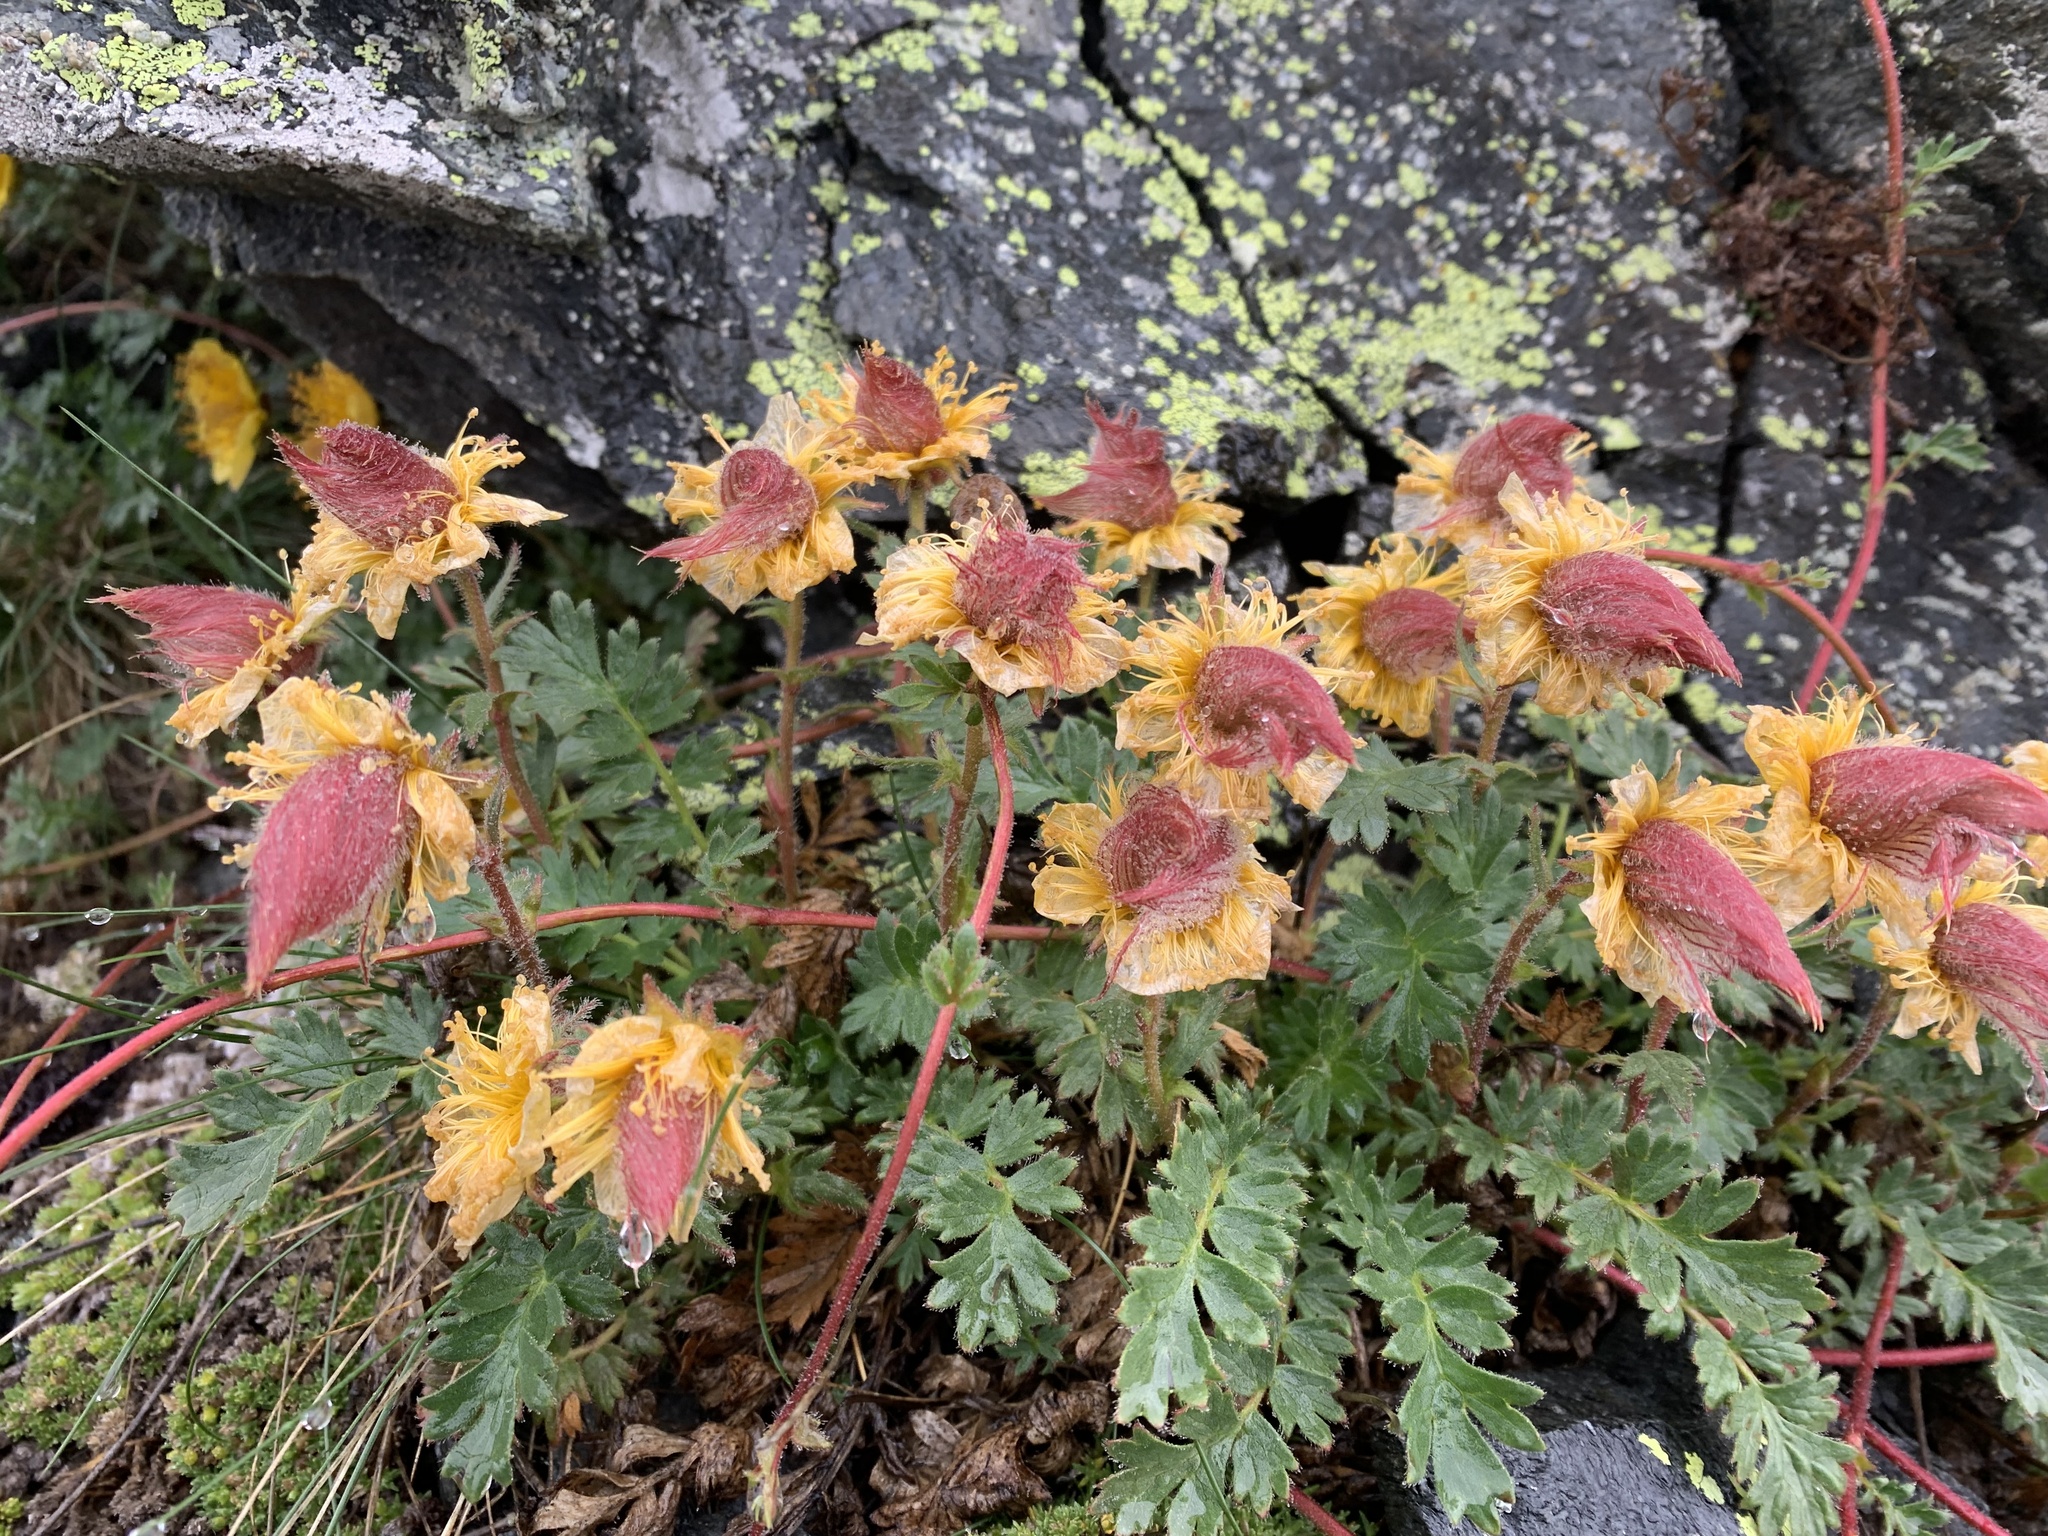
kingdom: Plantae
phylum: Tracheophyta
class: Magnoliopsida
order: Rosales
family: Rosaceae
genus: Geum
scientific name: Geum reptans
